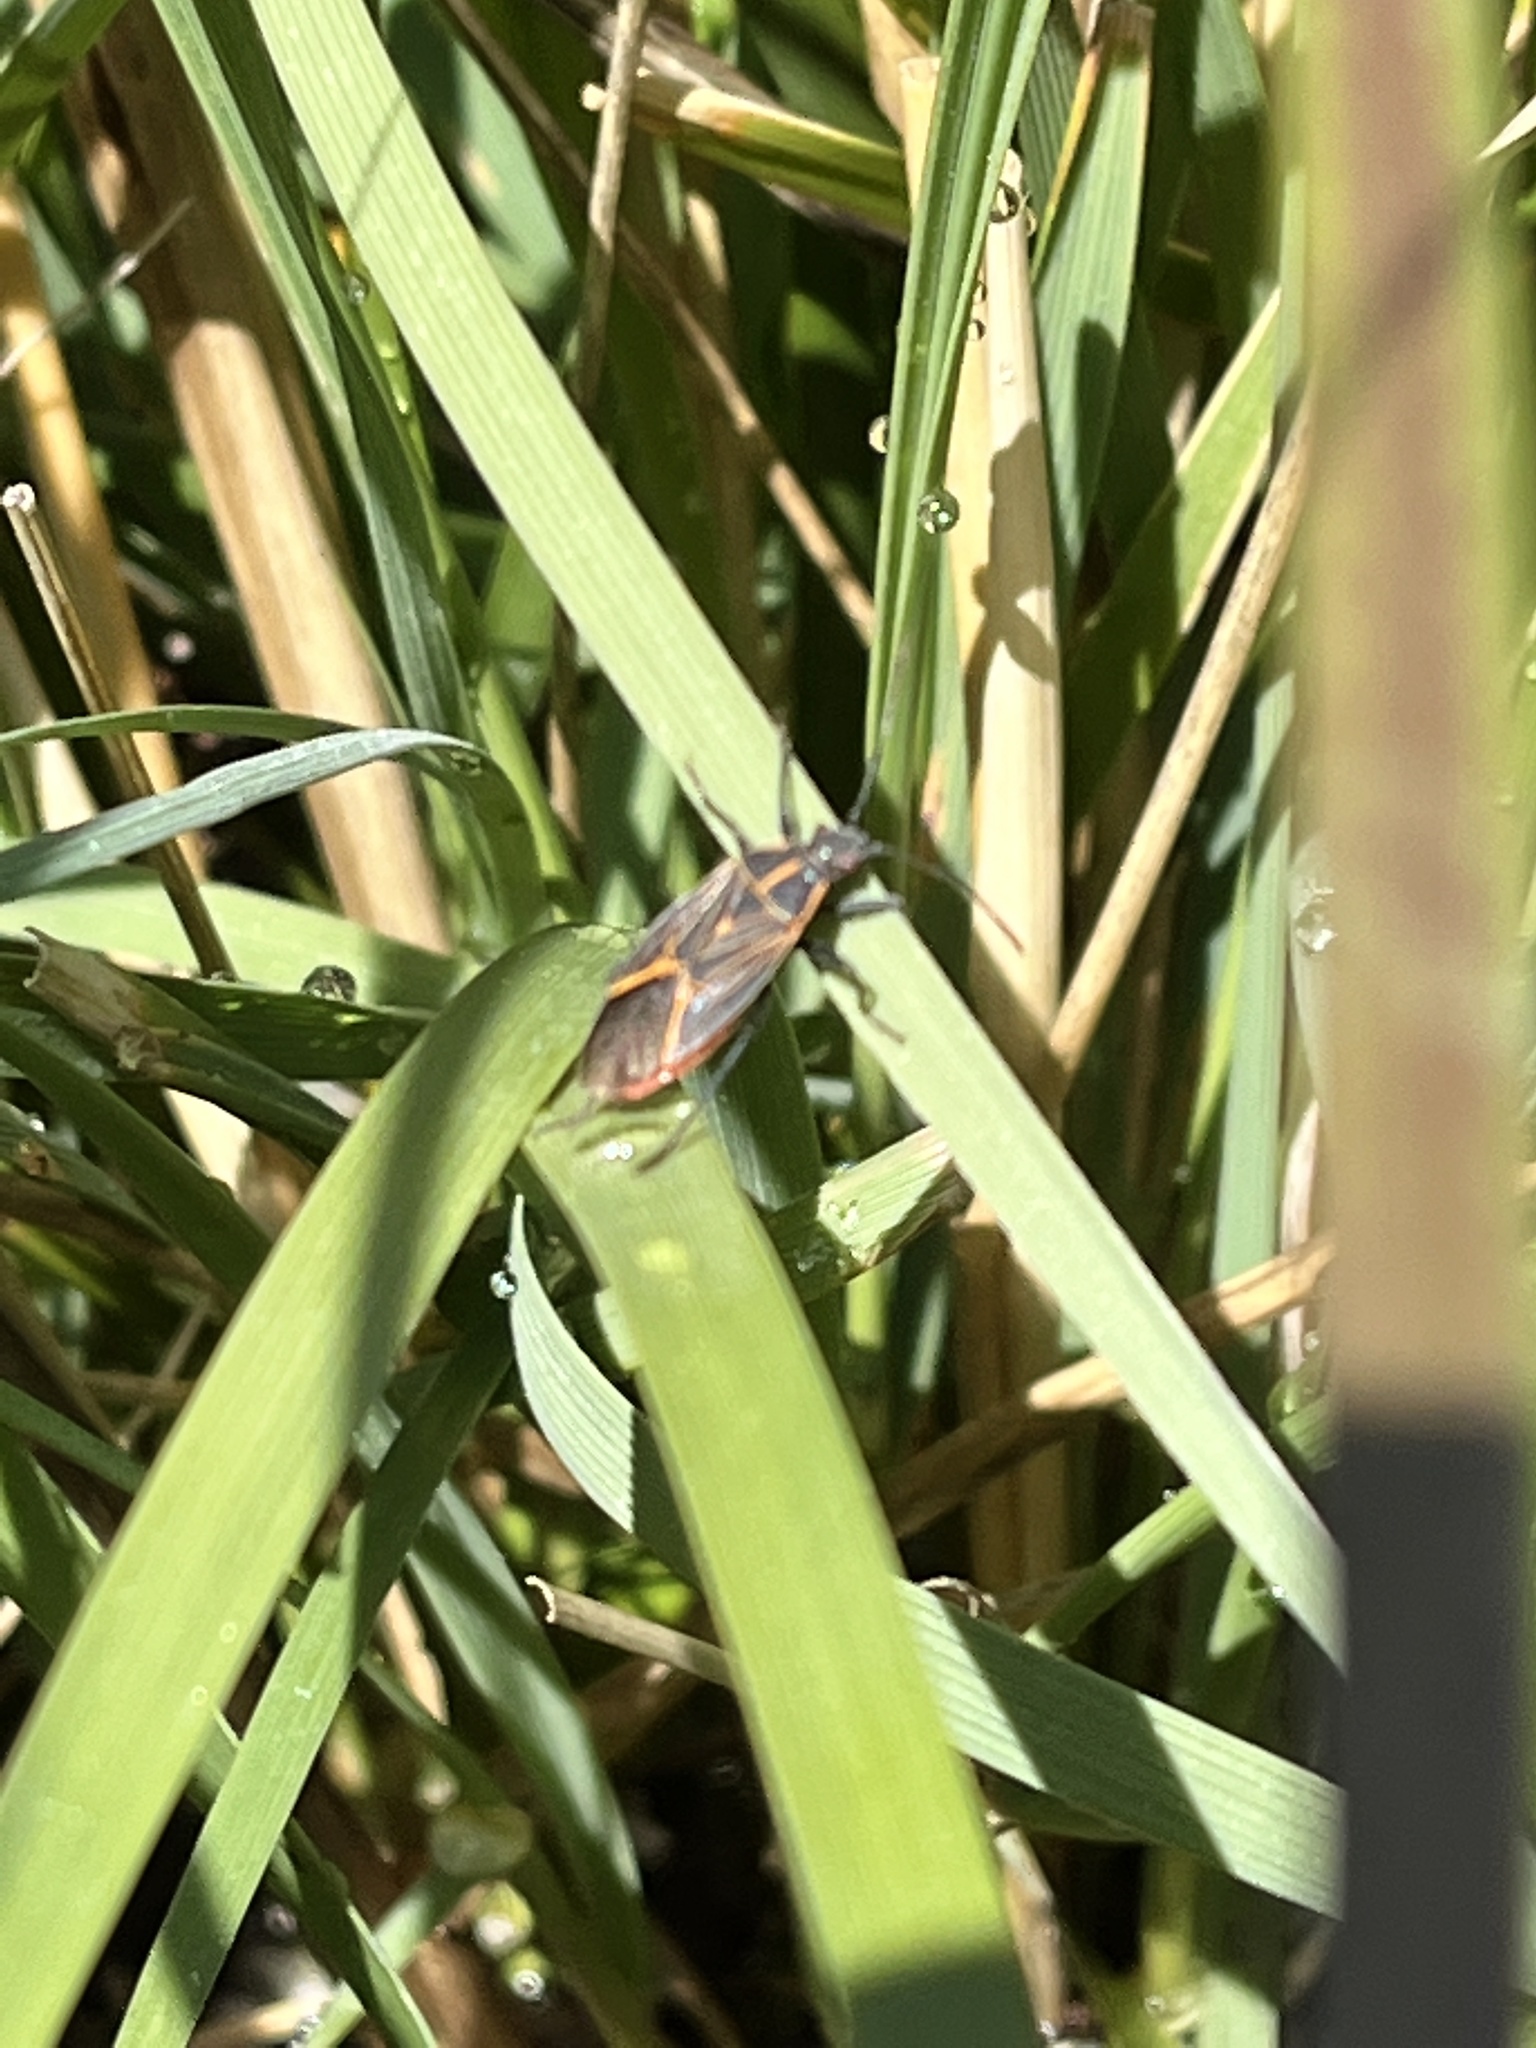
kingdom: Animalia
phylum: Arthropoda
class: Insecta
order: Hemiptera
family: Rhopalidae
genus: Boisea
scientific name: Boisea rubrolineata
